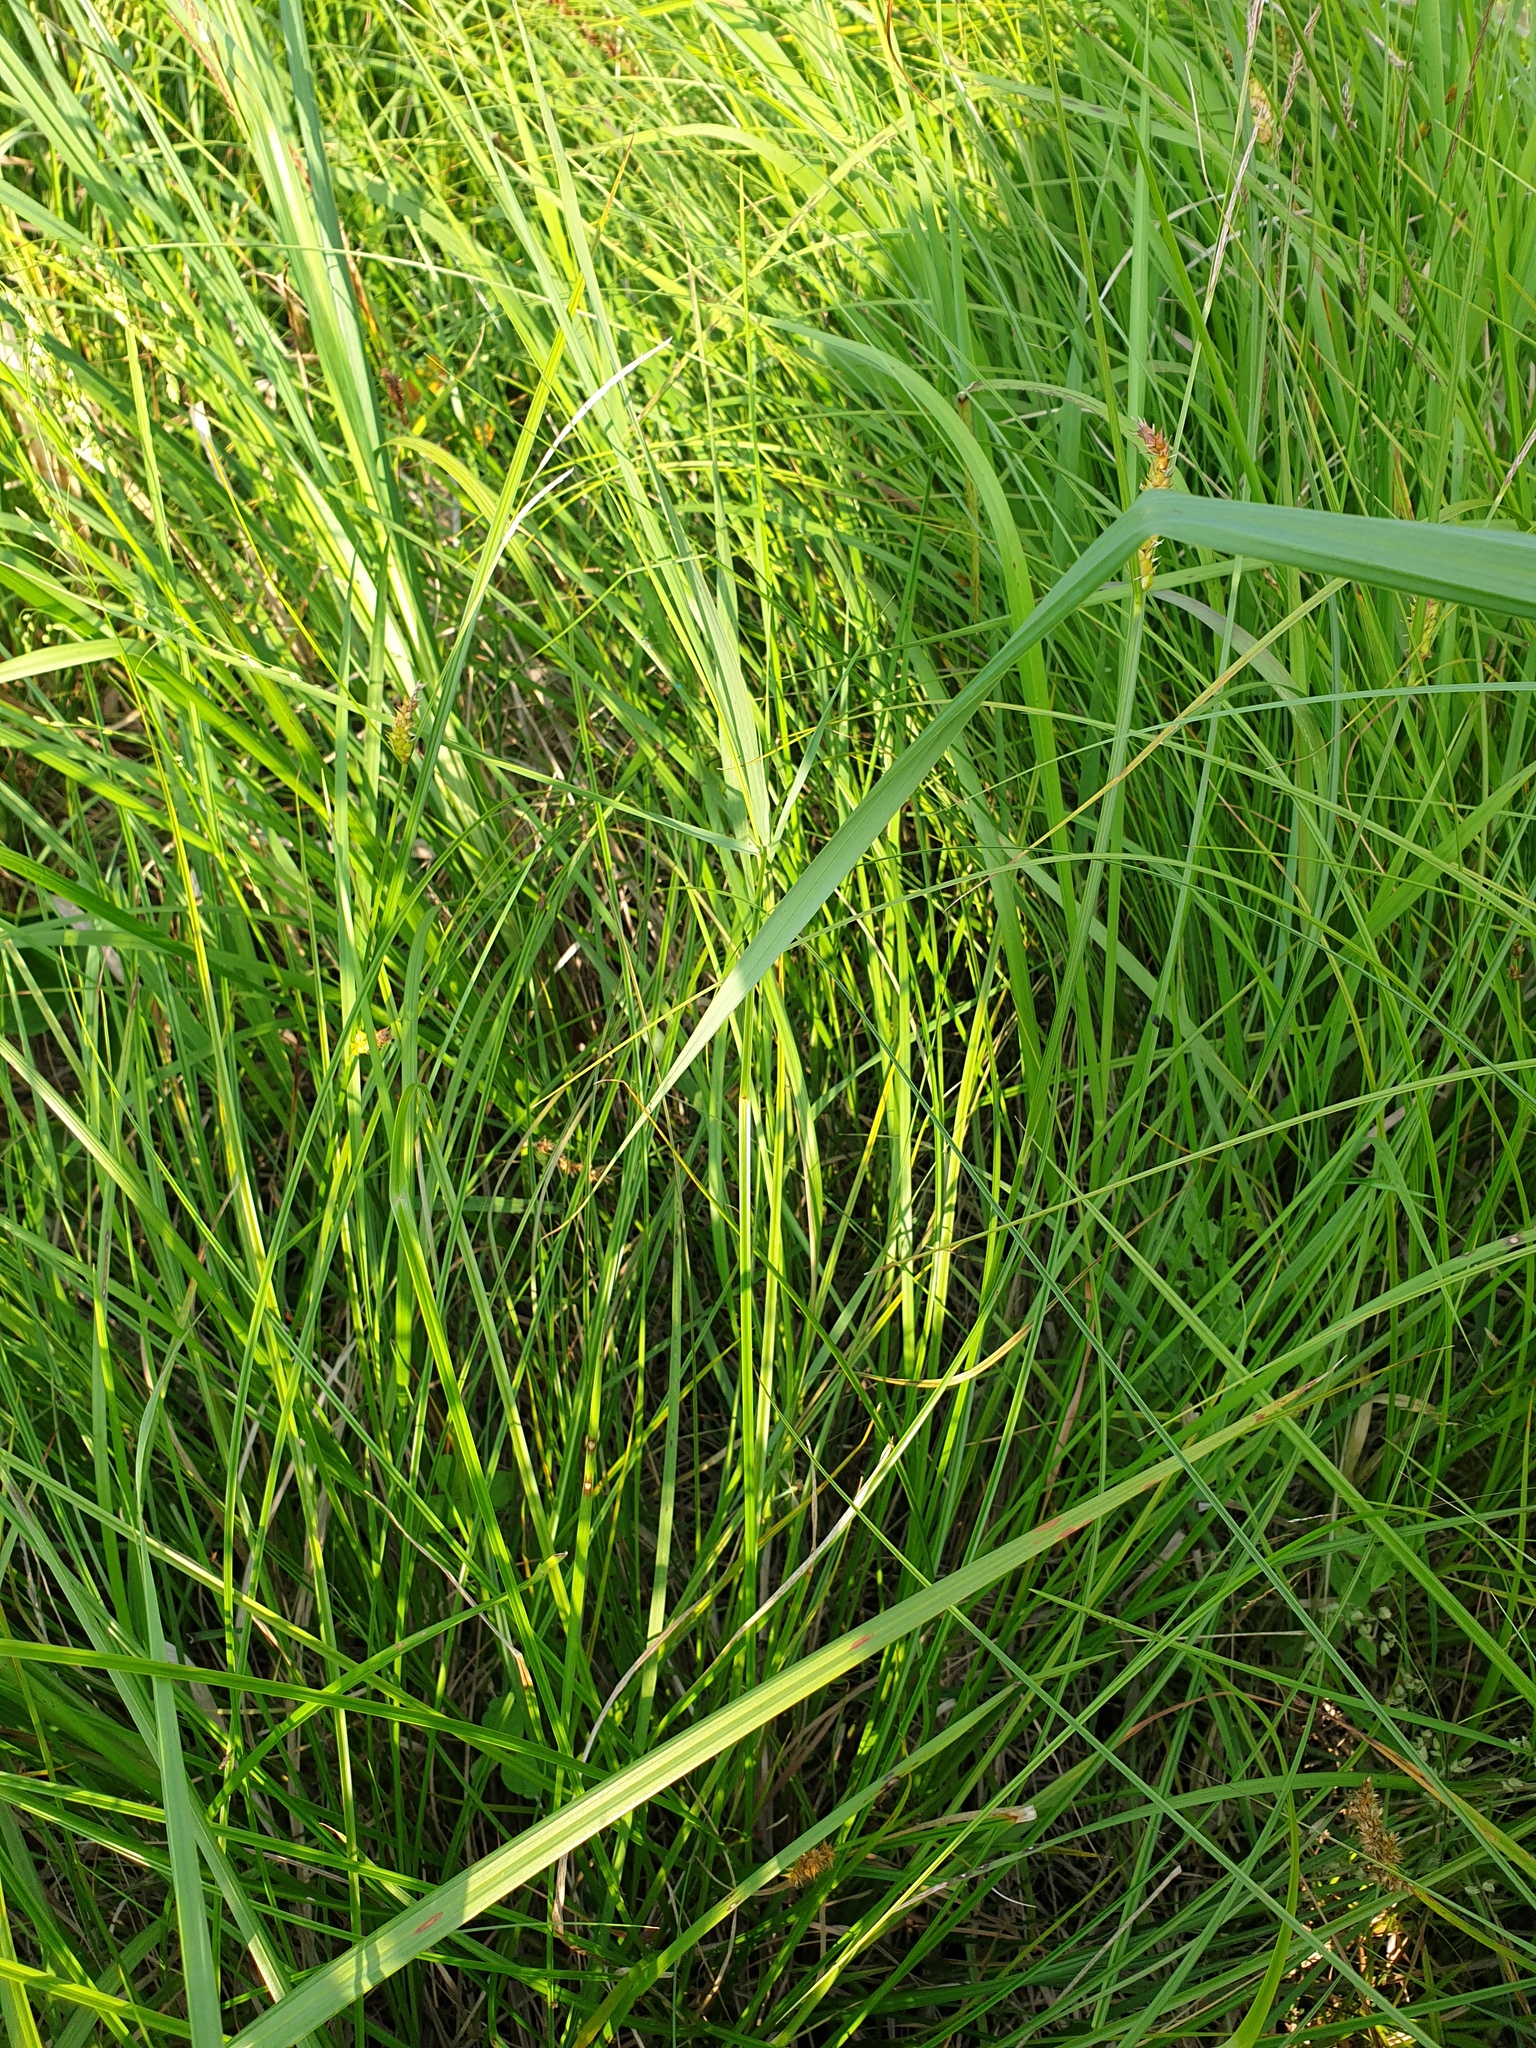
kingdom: Plantae
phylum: Tracheophyta
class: Liliopsida
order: Poales
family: Cyperaceae
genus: Carex
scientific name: Carex vesicaria
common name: Bladder-sedge
